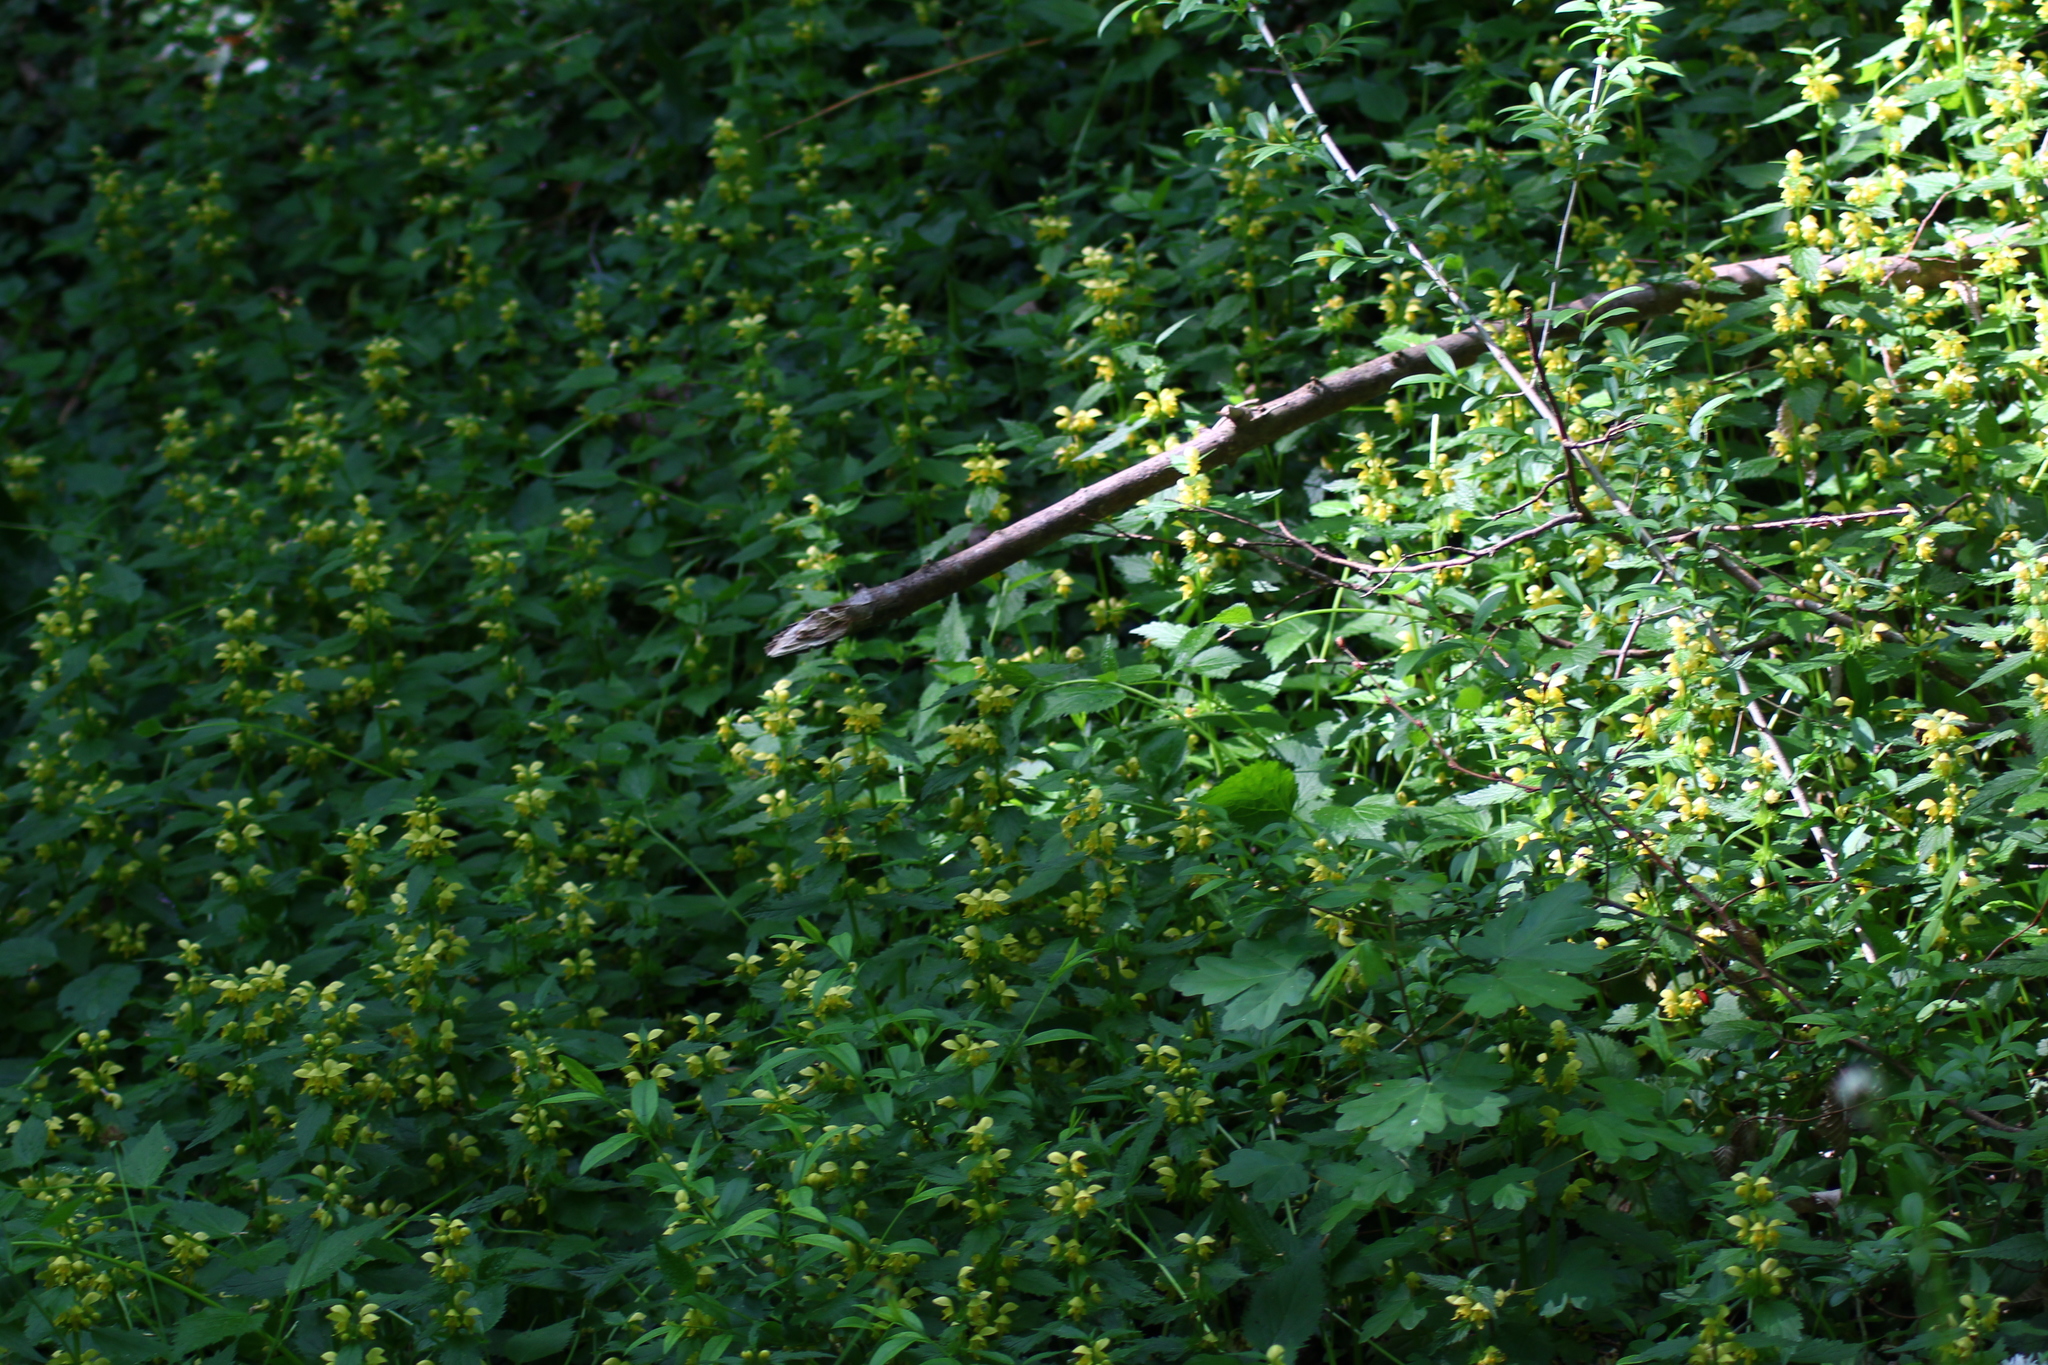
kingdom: Plantae
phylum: Tracheophyta
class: Magnoliopsida
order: Lamiales
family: Lamiaceae
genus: Lamium
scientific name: Lamium galeobdolon
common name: Yellow archangel
